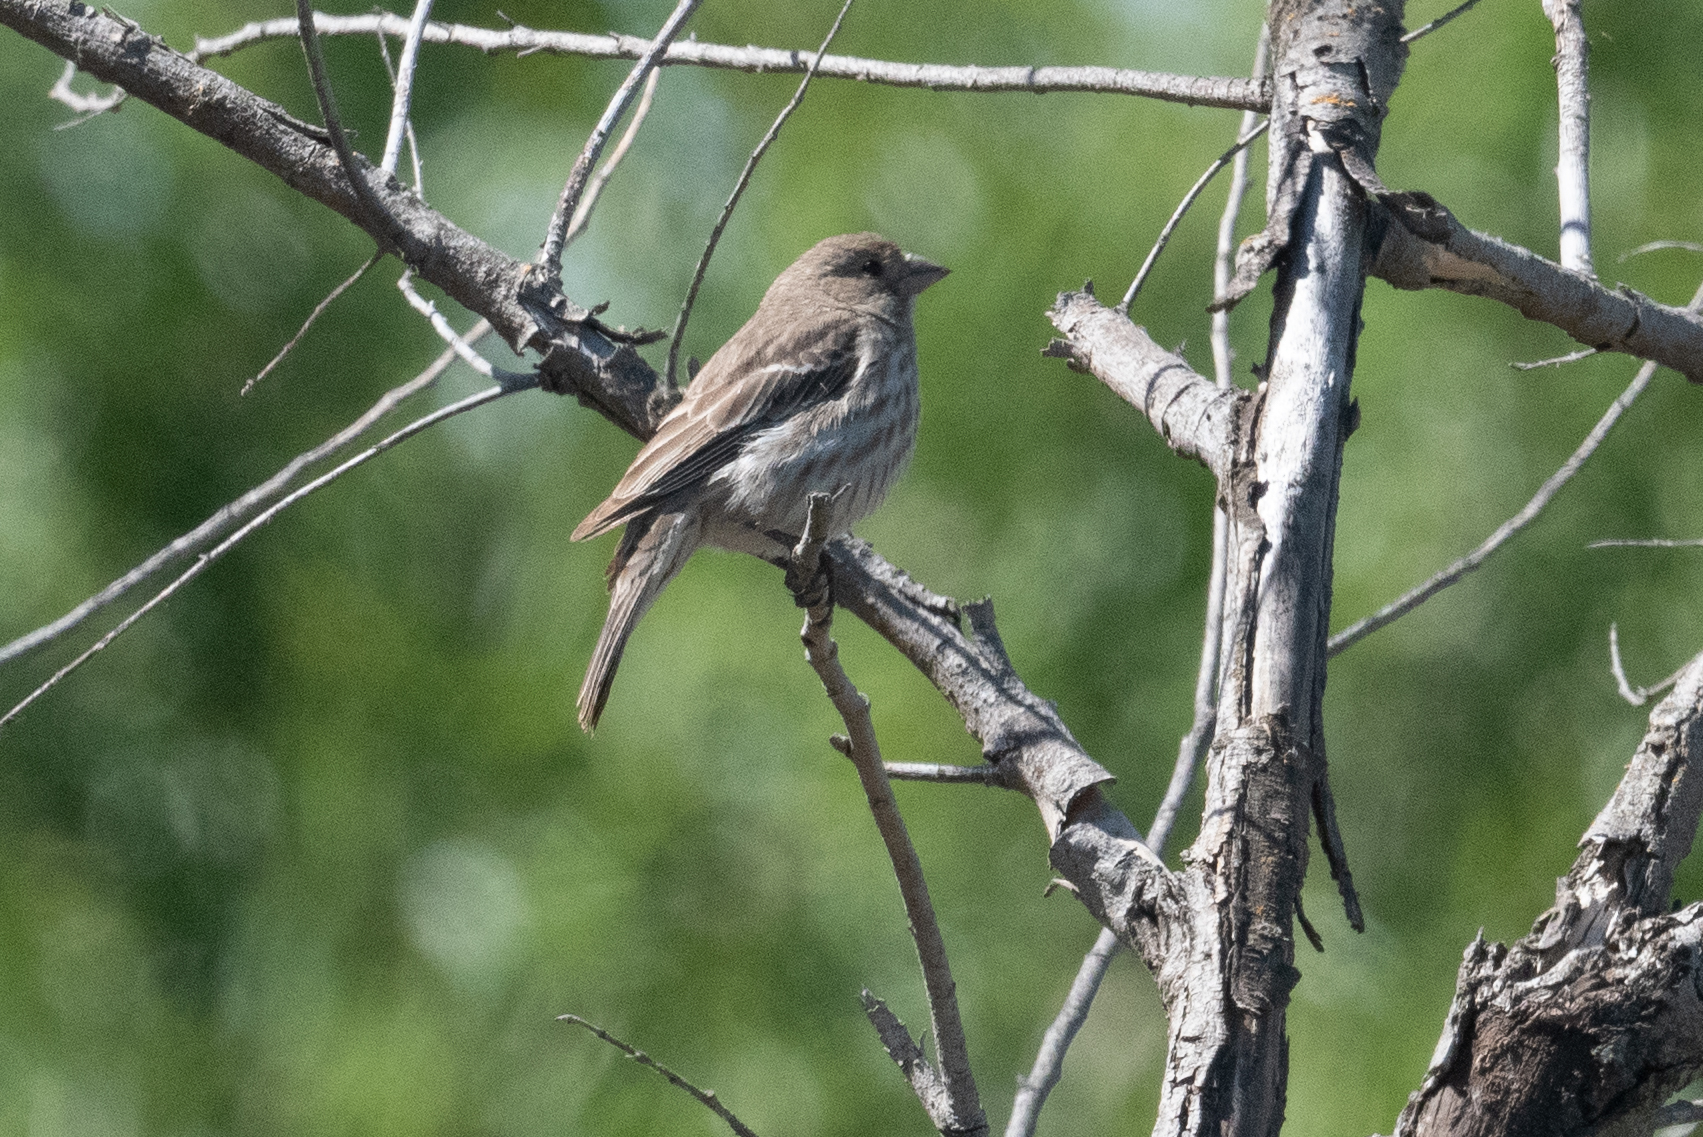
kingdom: Animalia
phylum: Chordata
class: Aves
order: Passeriformes
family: Fringillidae
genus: Haemorhous
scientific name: Haemorhous mexicanus
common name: House finch
